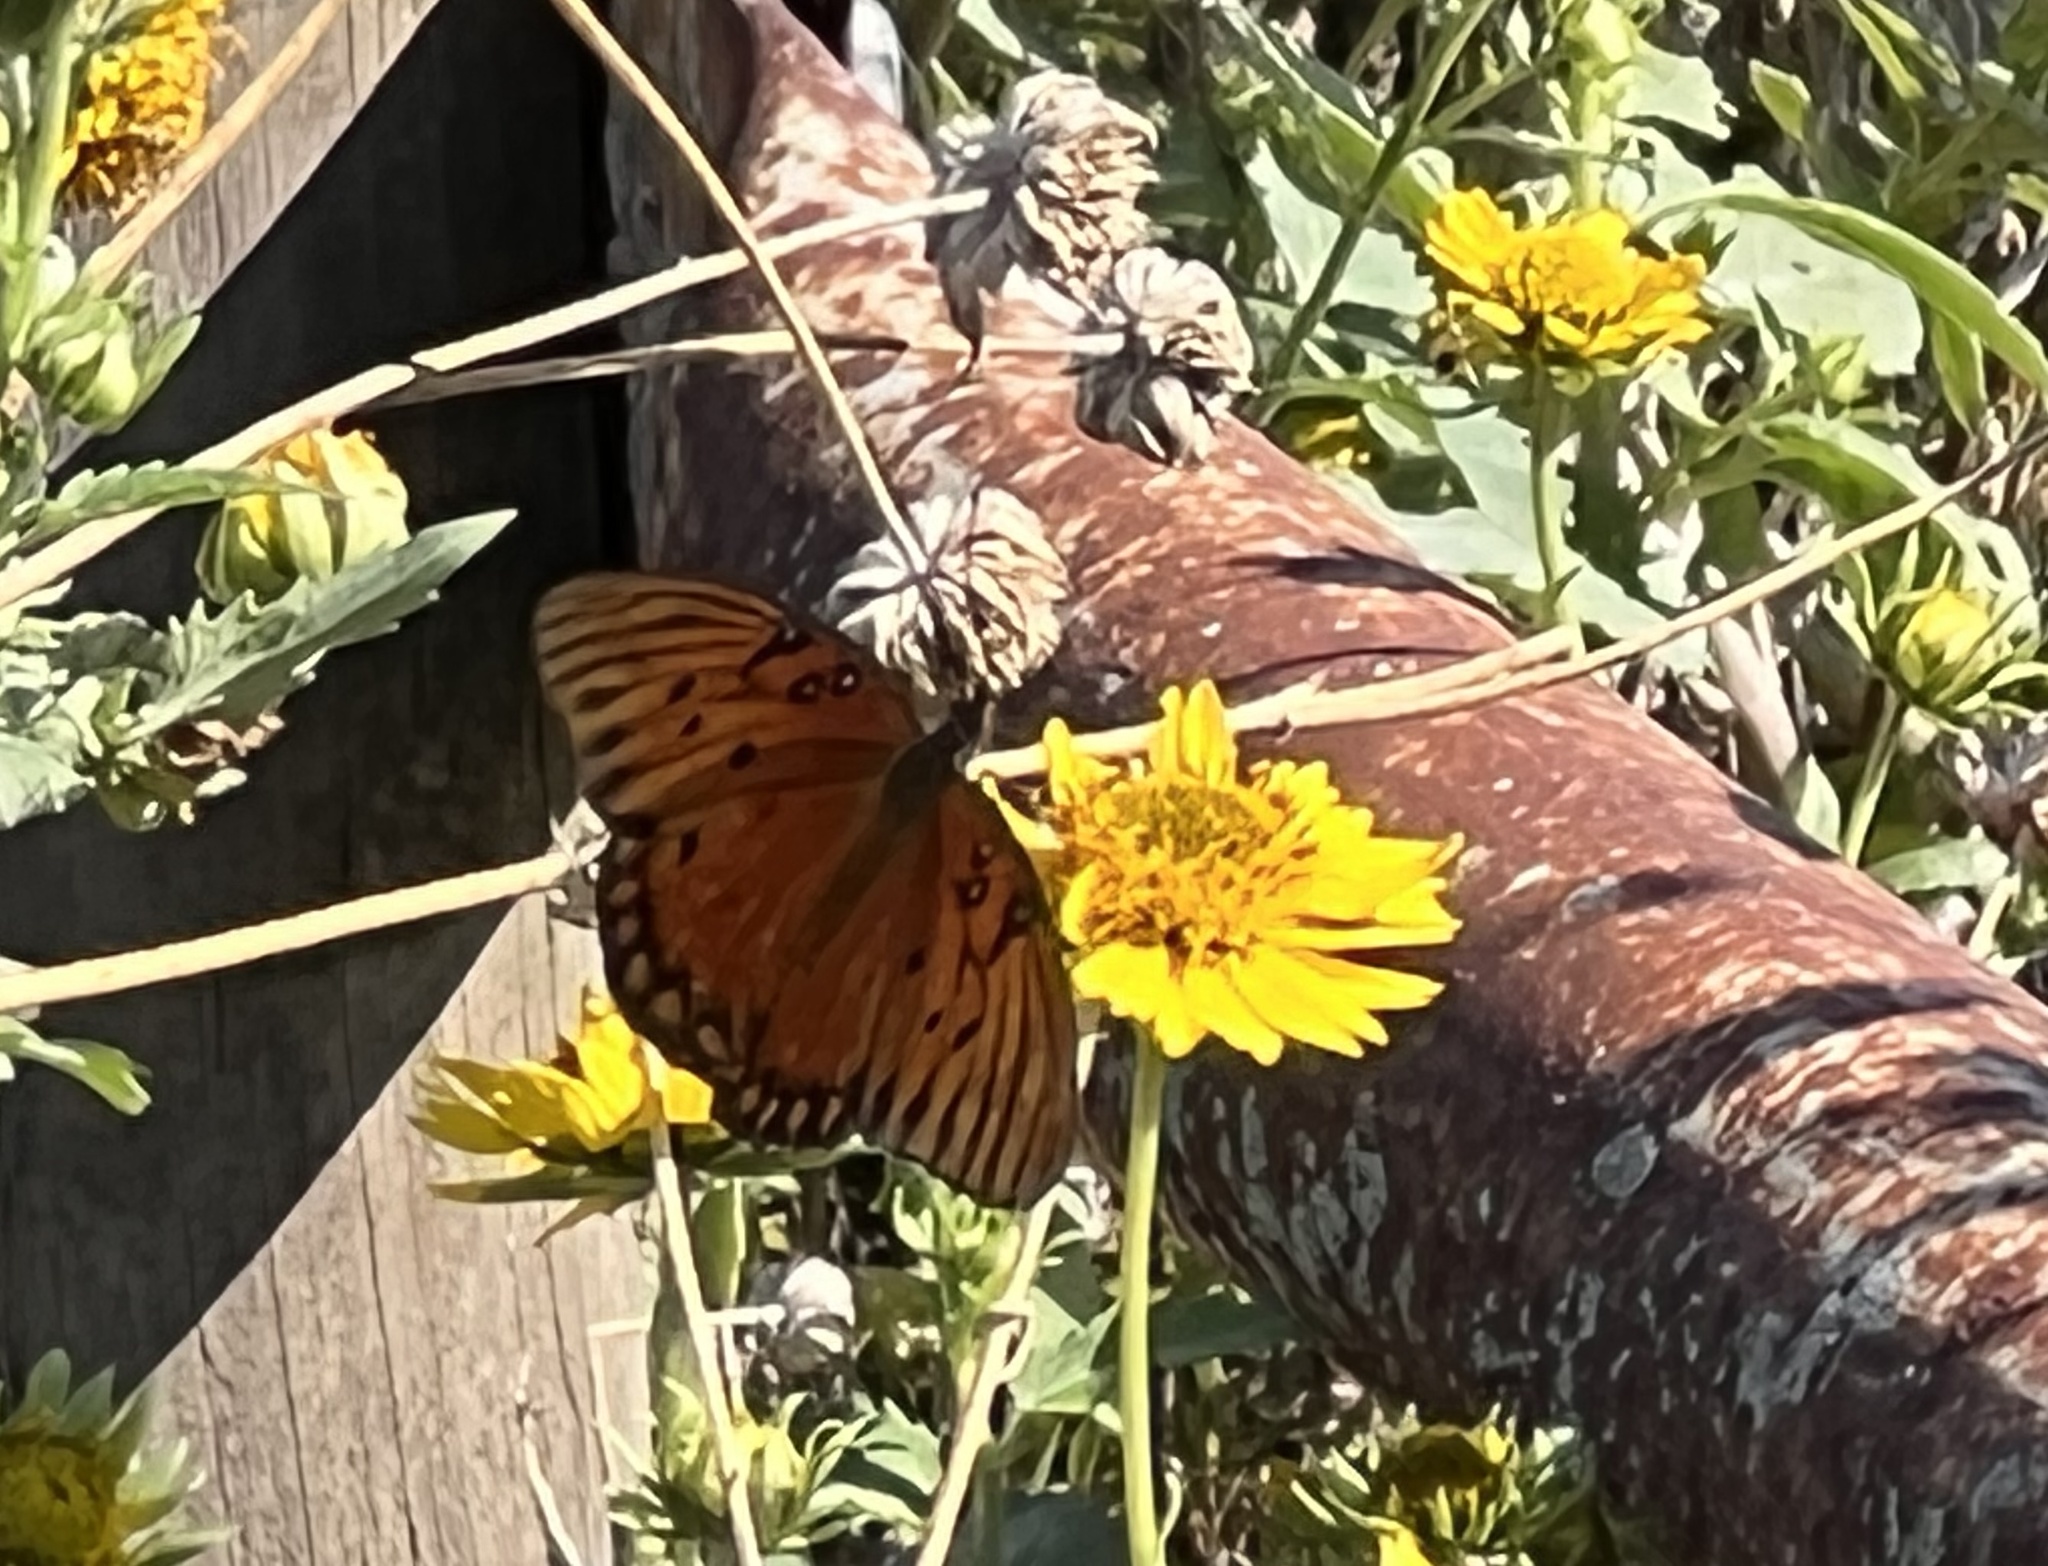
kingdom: Animalia
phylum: Arthropoda
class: Insecta
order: Lepidoptera
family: Nymphalidae
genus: Dione
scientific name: Dione vanillae
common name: Gulf fritillary
